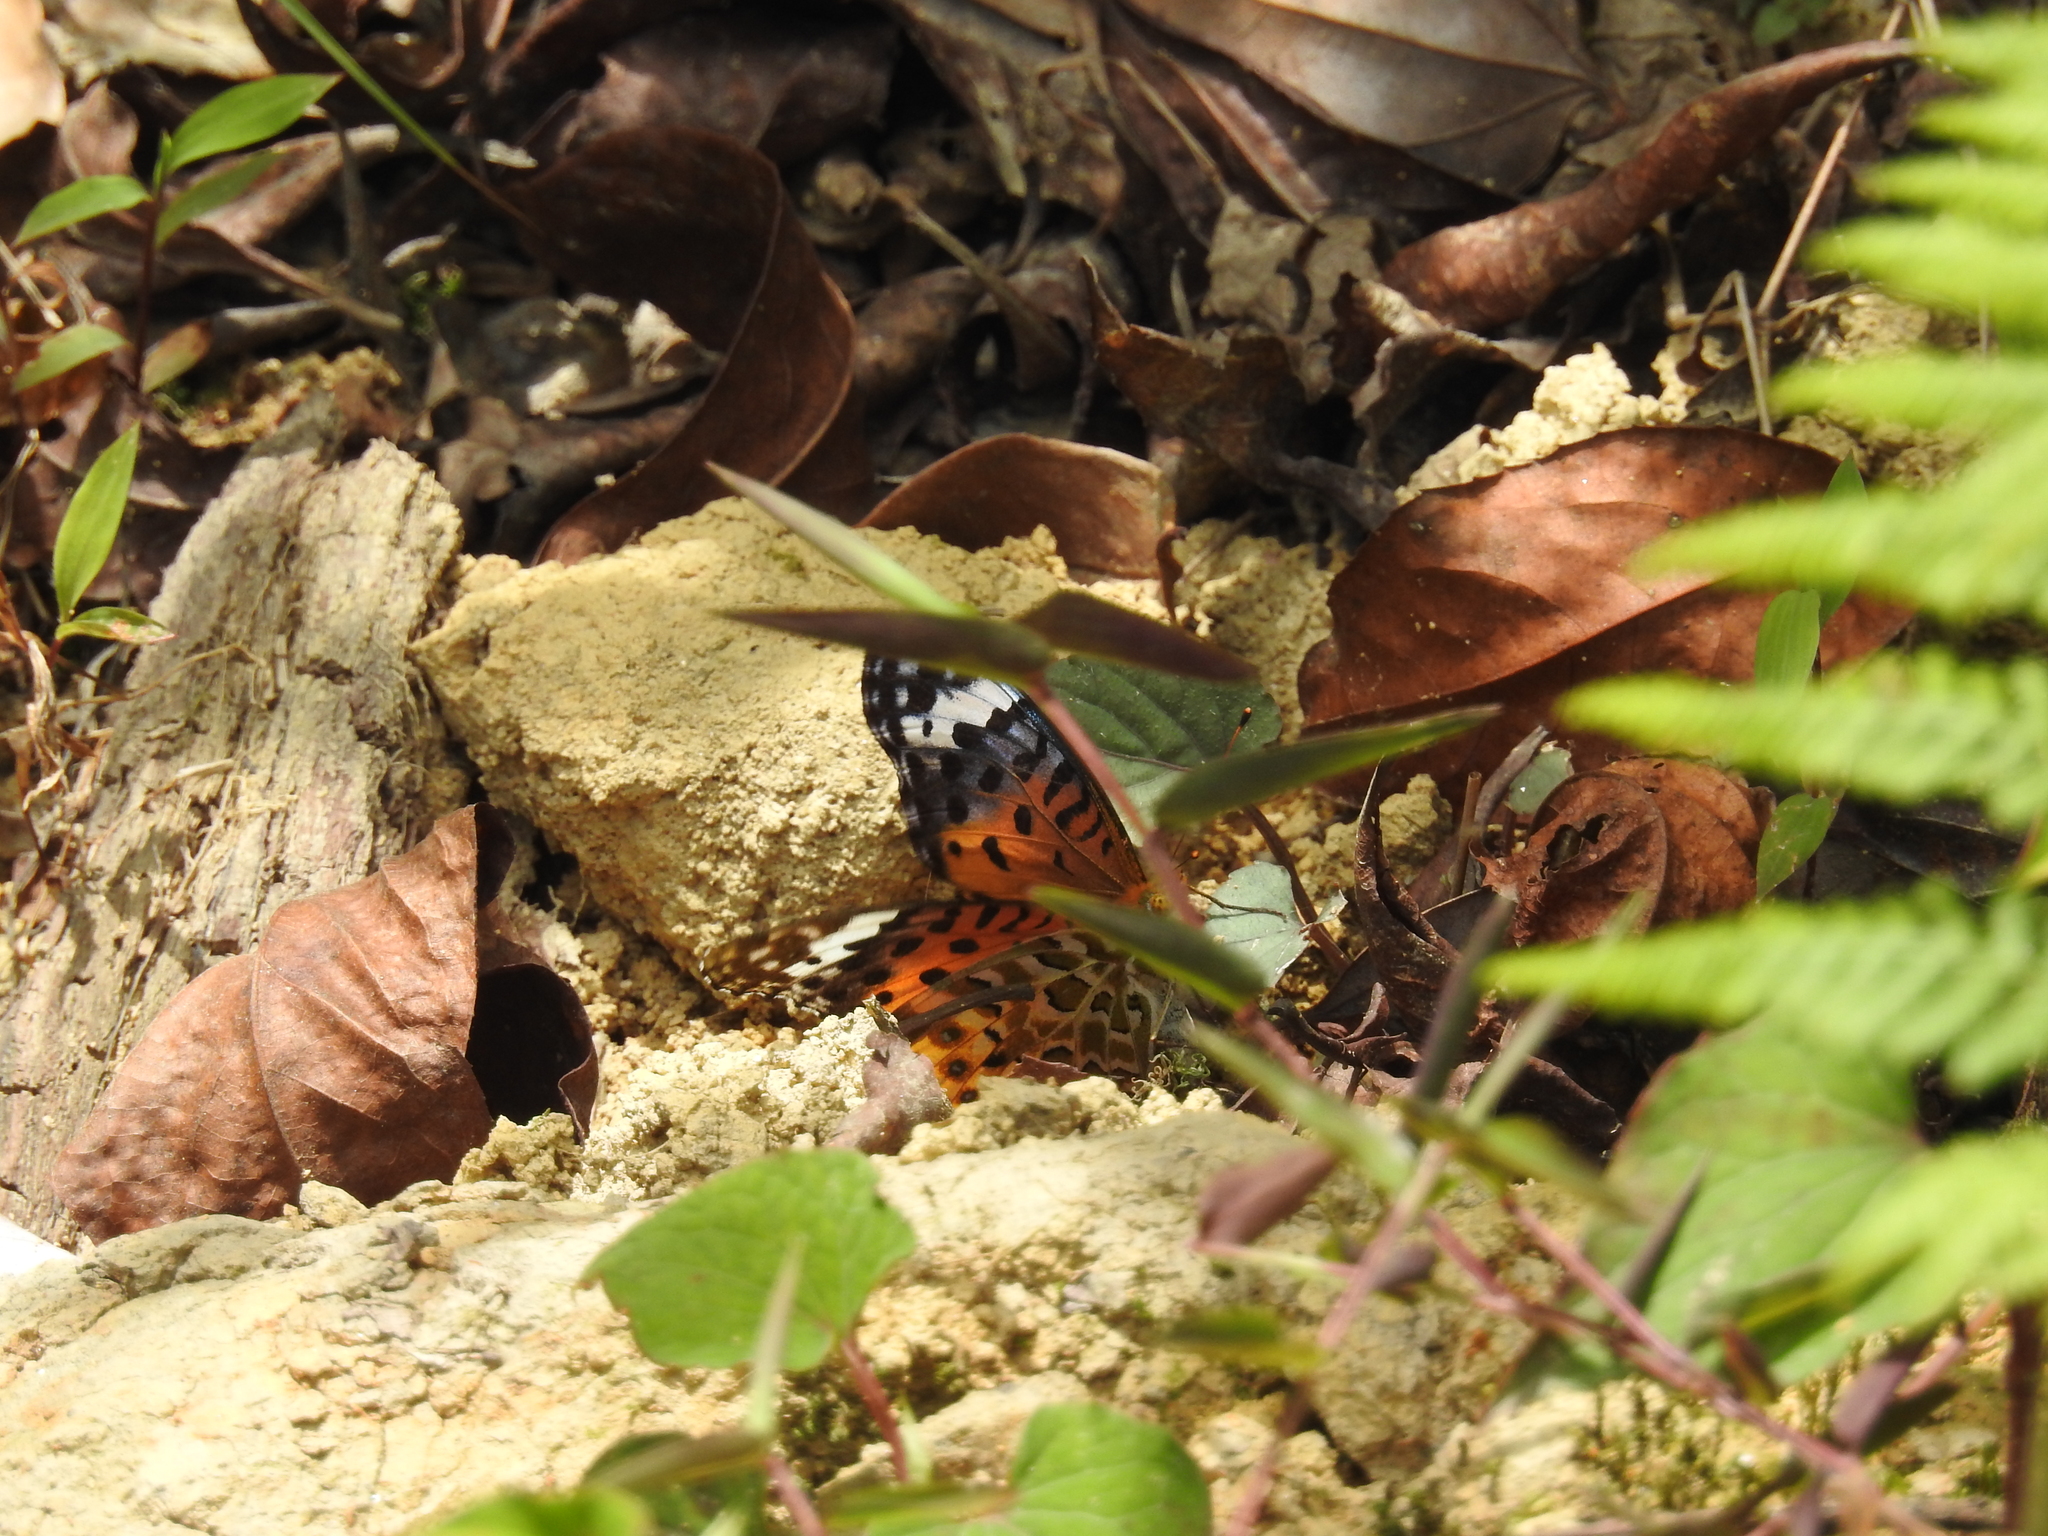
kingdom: Animalia
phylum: Arthropoda
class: Insecta
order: Lepidoptera
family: Nymphalidae
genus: Argynnis
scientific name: Argynnis hyperbius
